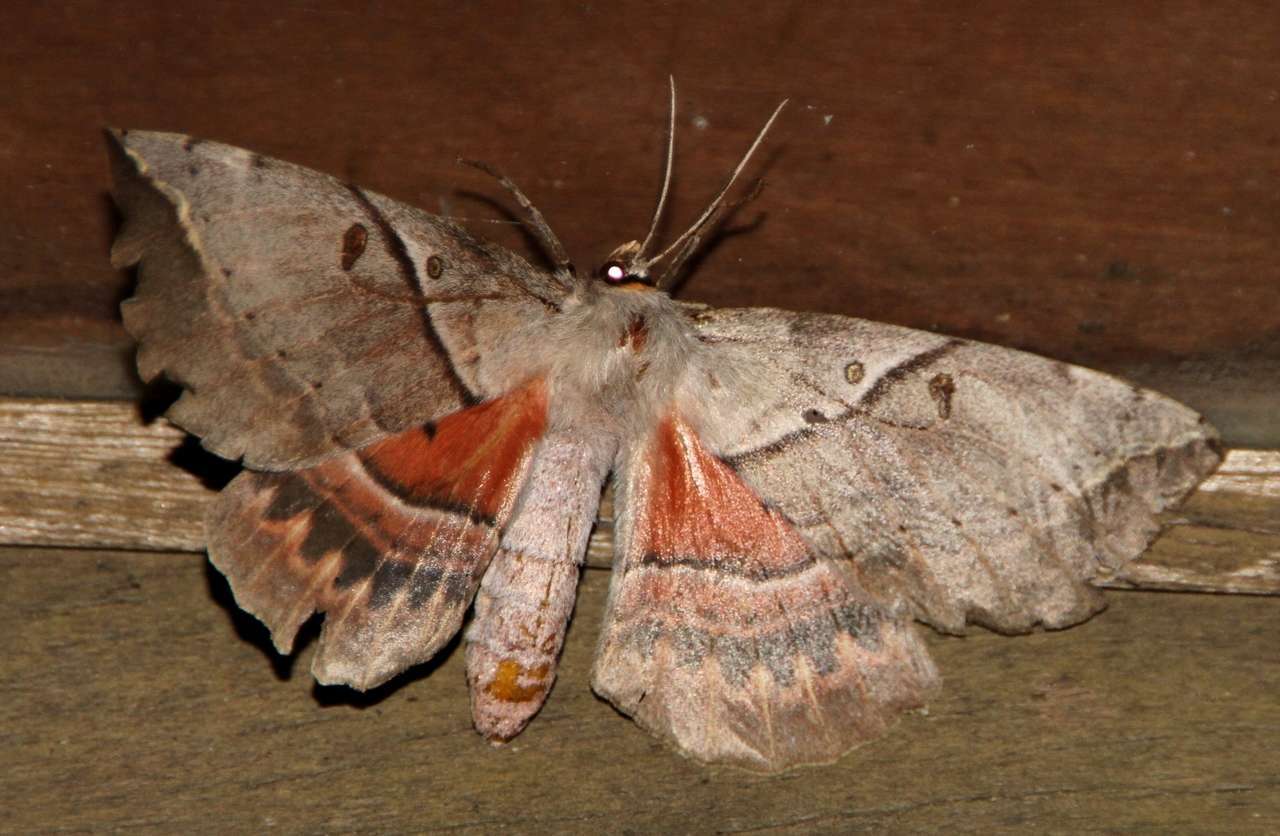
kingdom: Animalia
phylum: Arthropoda
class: Insecta
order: Lepidoptera
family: Anthelidae
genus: Chelepteryx
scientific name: Chelepteryx chalepteryx
